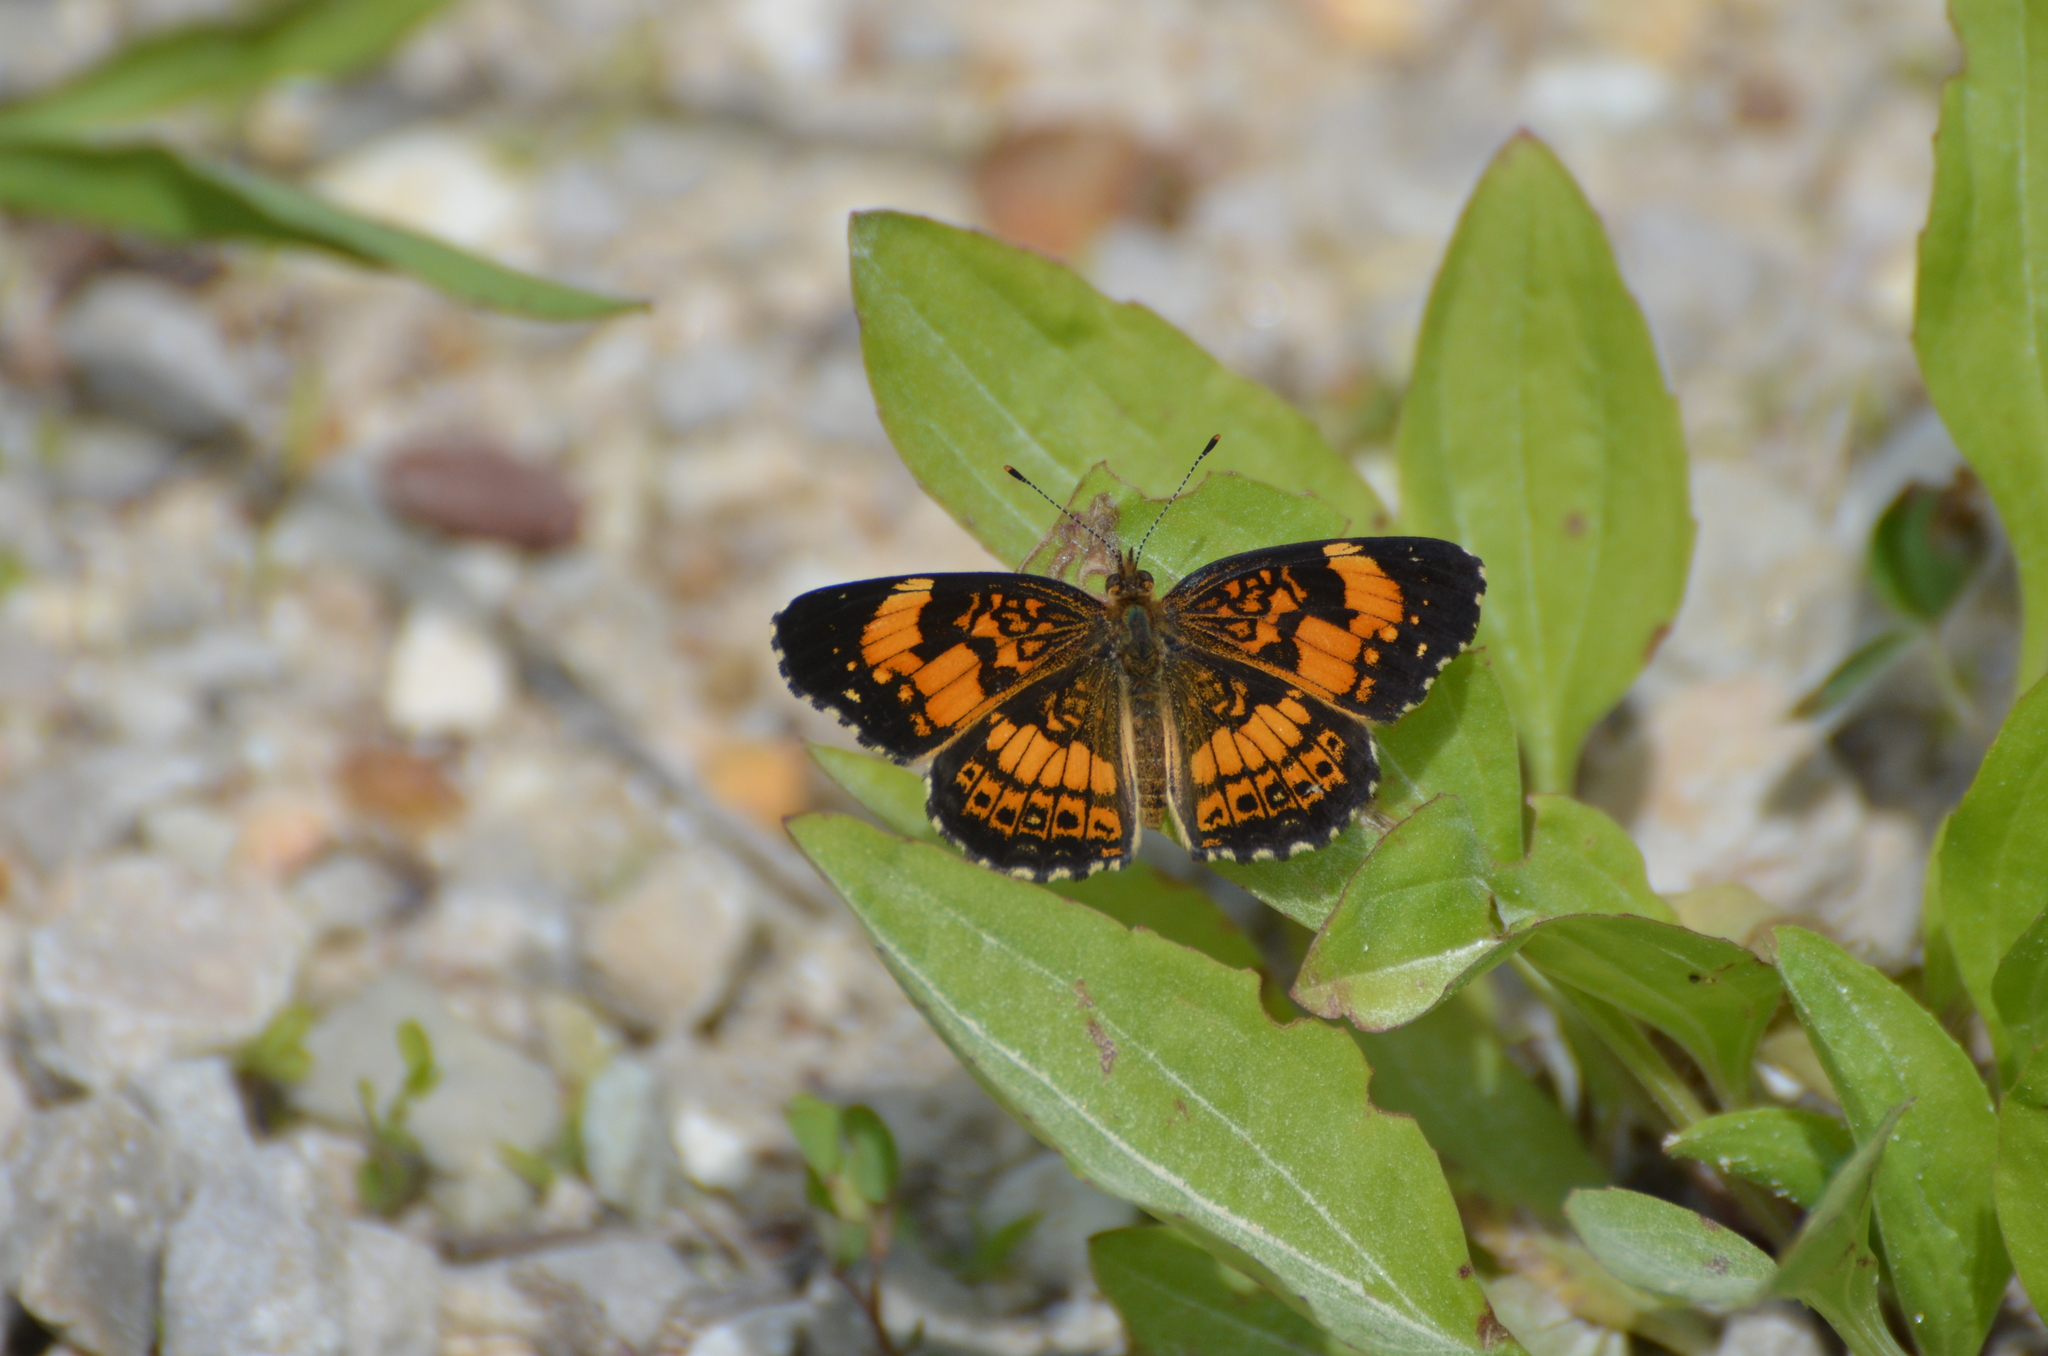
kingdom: Animalia
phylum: Arthropoda
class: Insecta
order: Lepidoptera
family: Nymphalidae
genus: Chlosyne
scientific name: Chlosyne nycteis
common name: Silvery checkerspot
